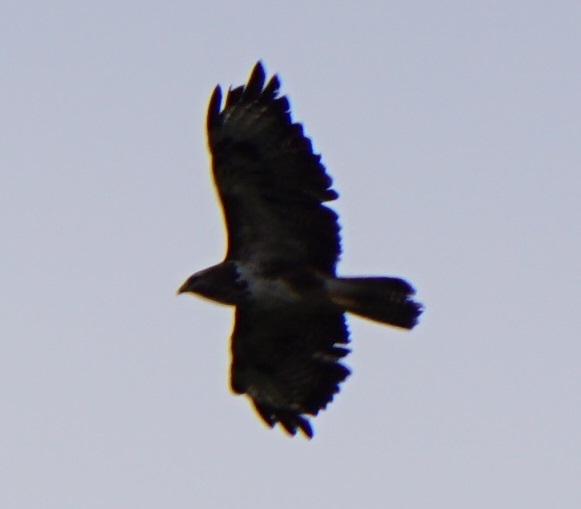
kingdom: Animalia
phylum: Chordata
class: Aves
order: Accipitriformes
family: Accipitridae
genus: Buteo
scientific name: Buteo buteo
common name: Common buzzard
